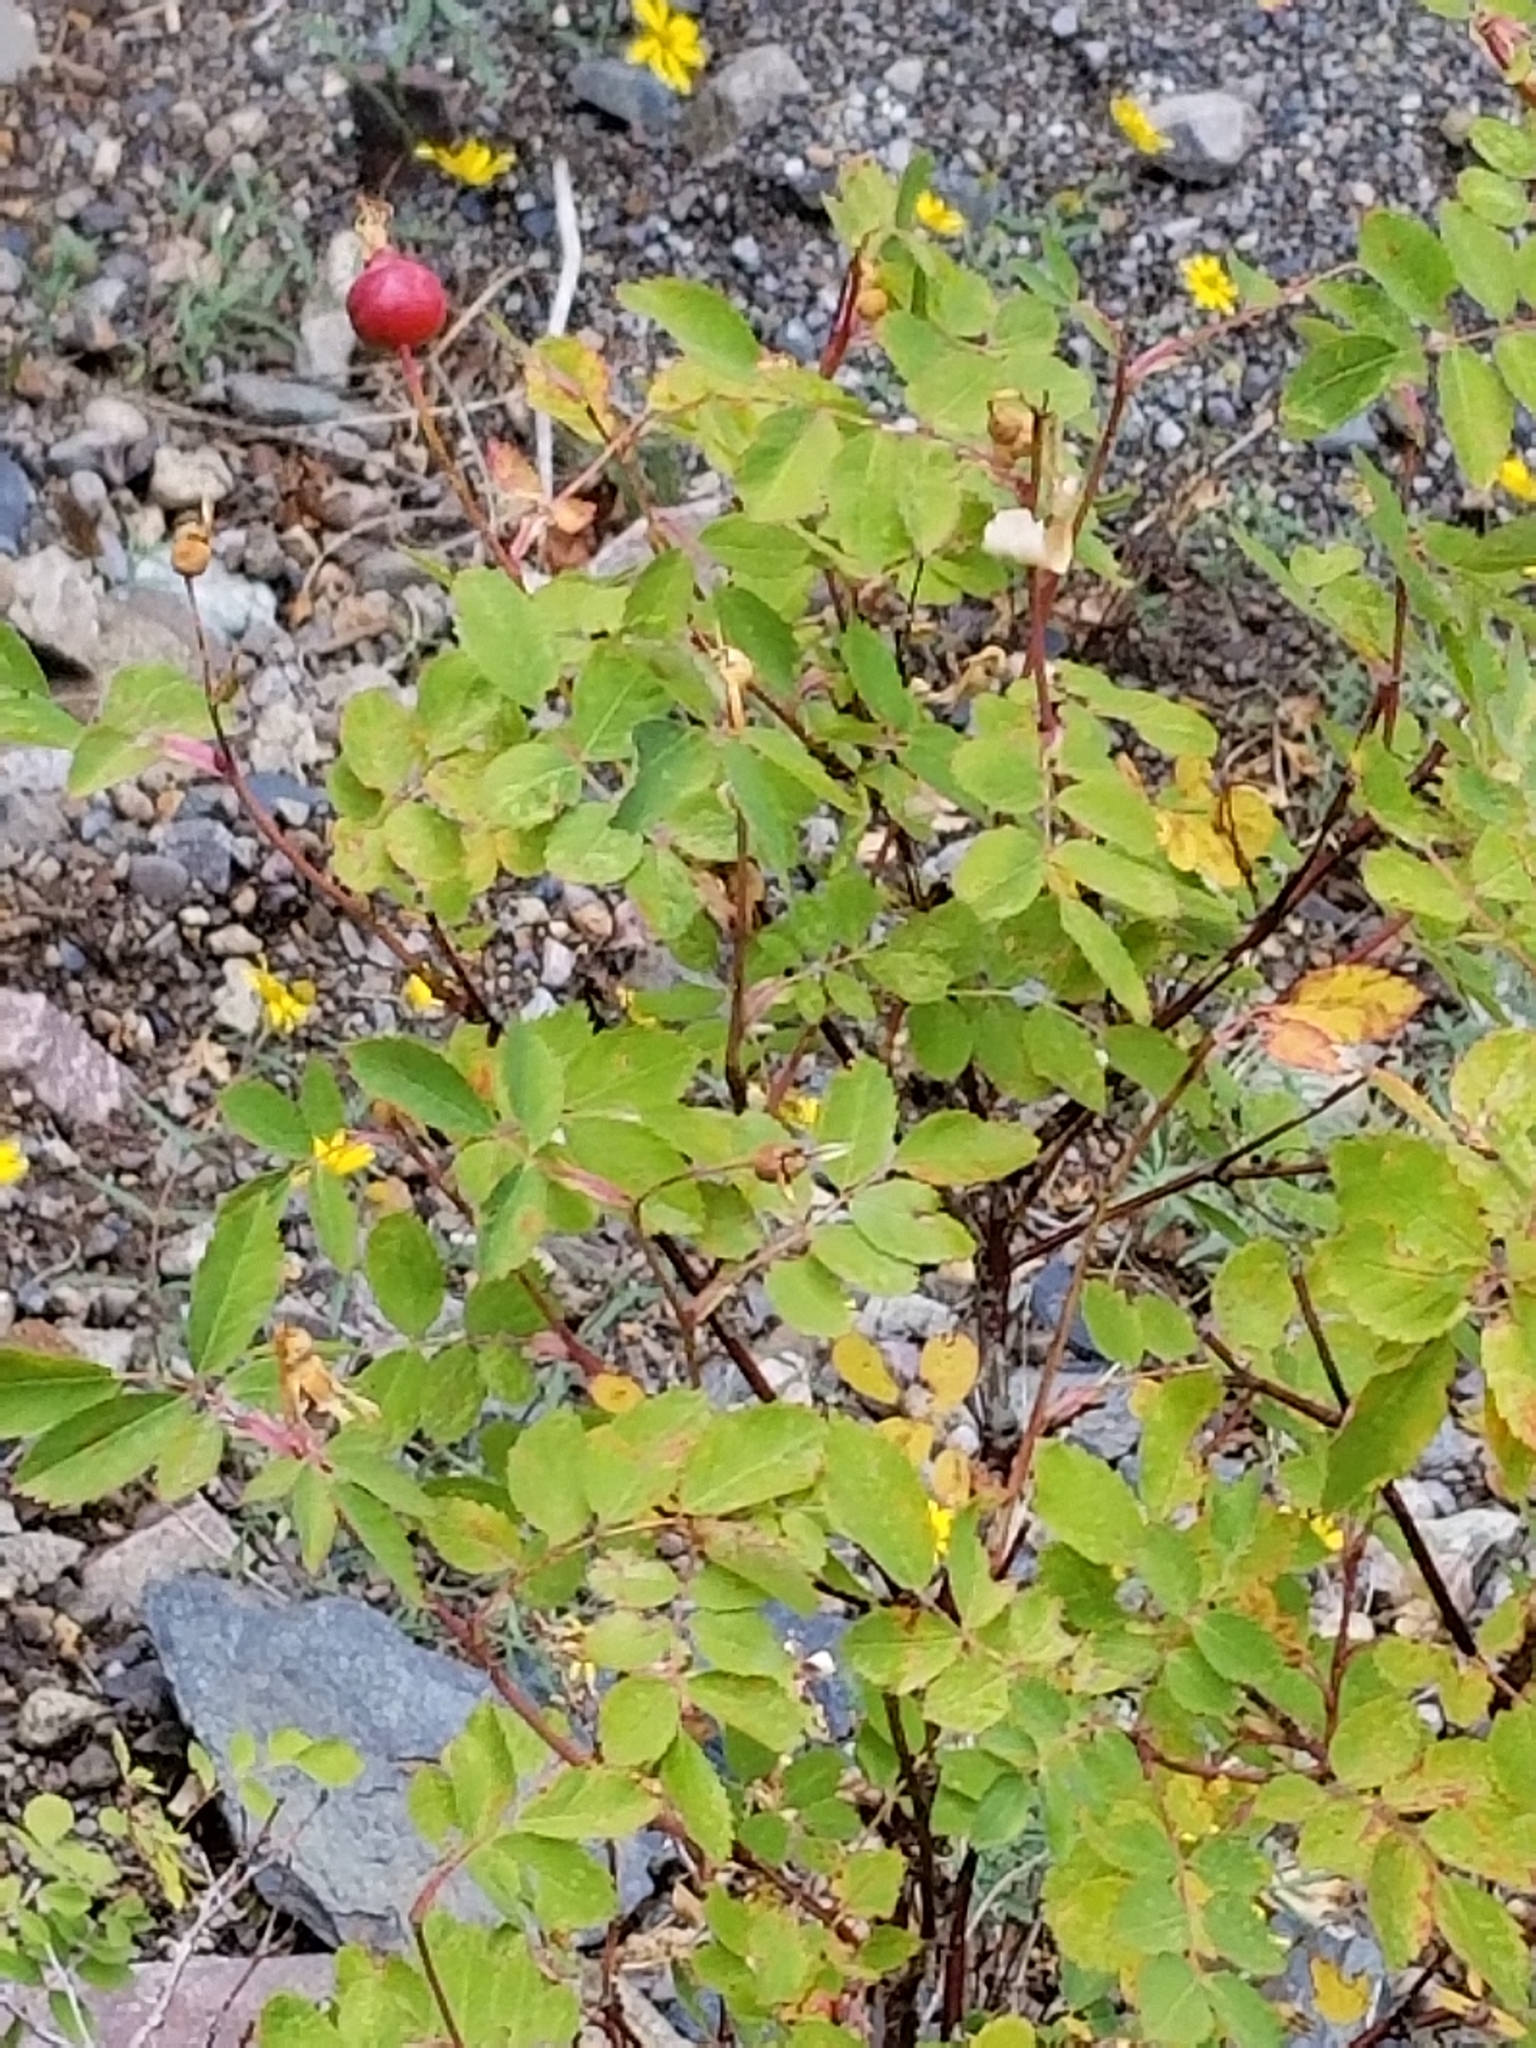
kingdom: Plantae
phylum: Tracheophyta
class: Magnoliopsida
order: Rosales
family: Rosaceae
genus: Rosa
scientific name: Rosa woodsii
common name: Woods's rose
